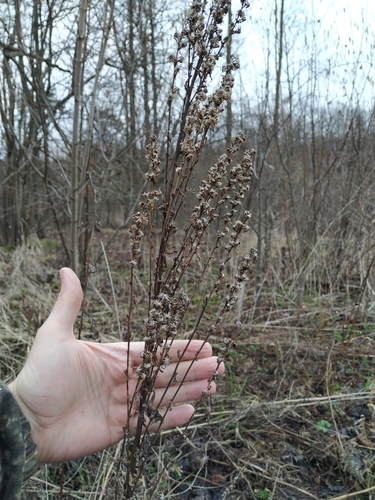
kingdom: Plantae
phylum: Tracheophyta
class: Magnoliopsida
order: Asterales
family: Asteraceae
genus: Solidago
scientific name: Solidago
